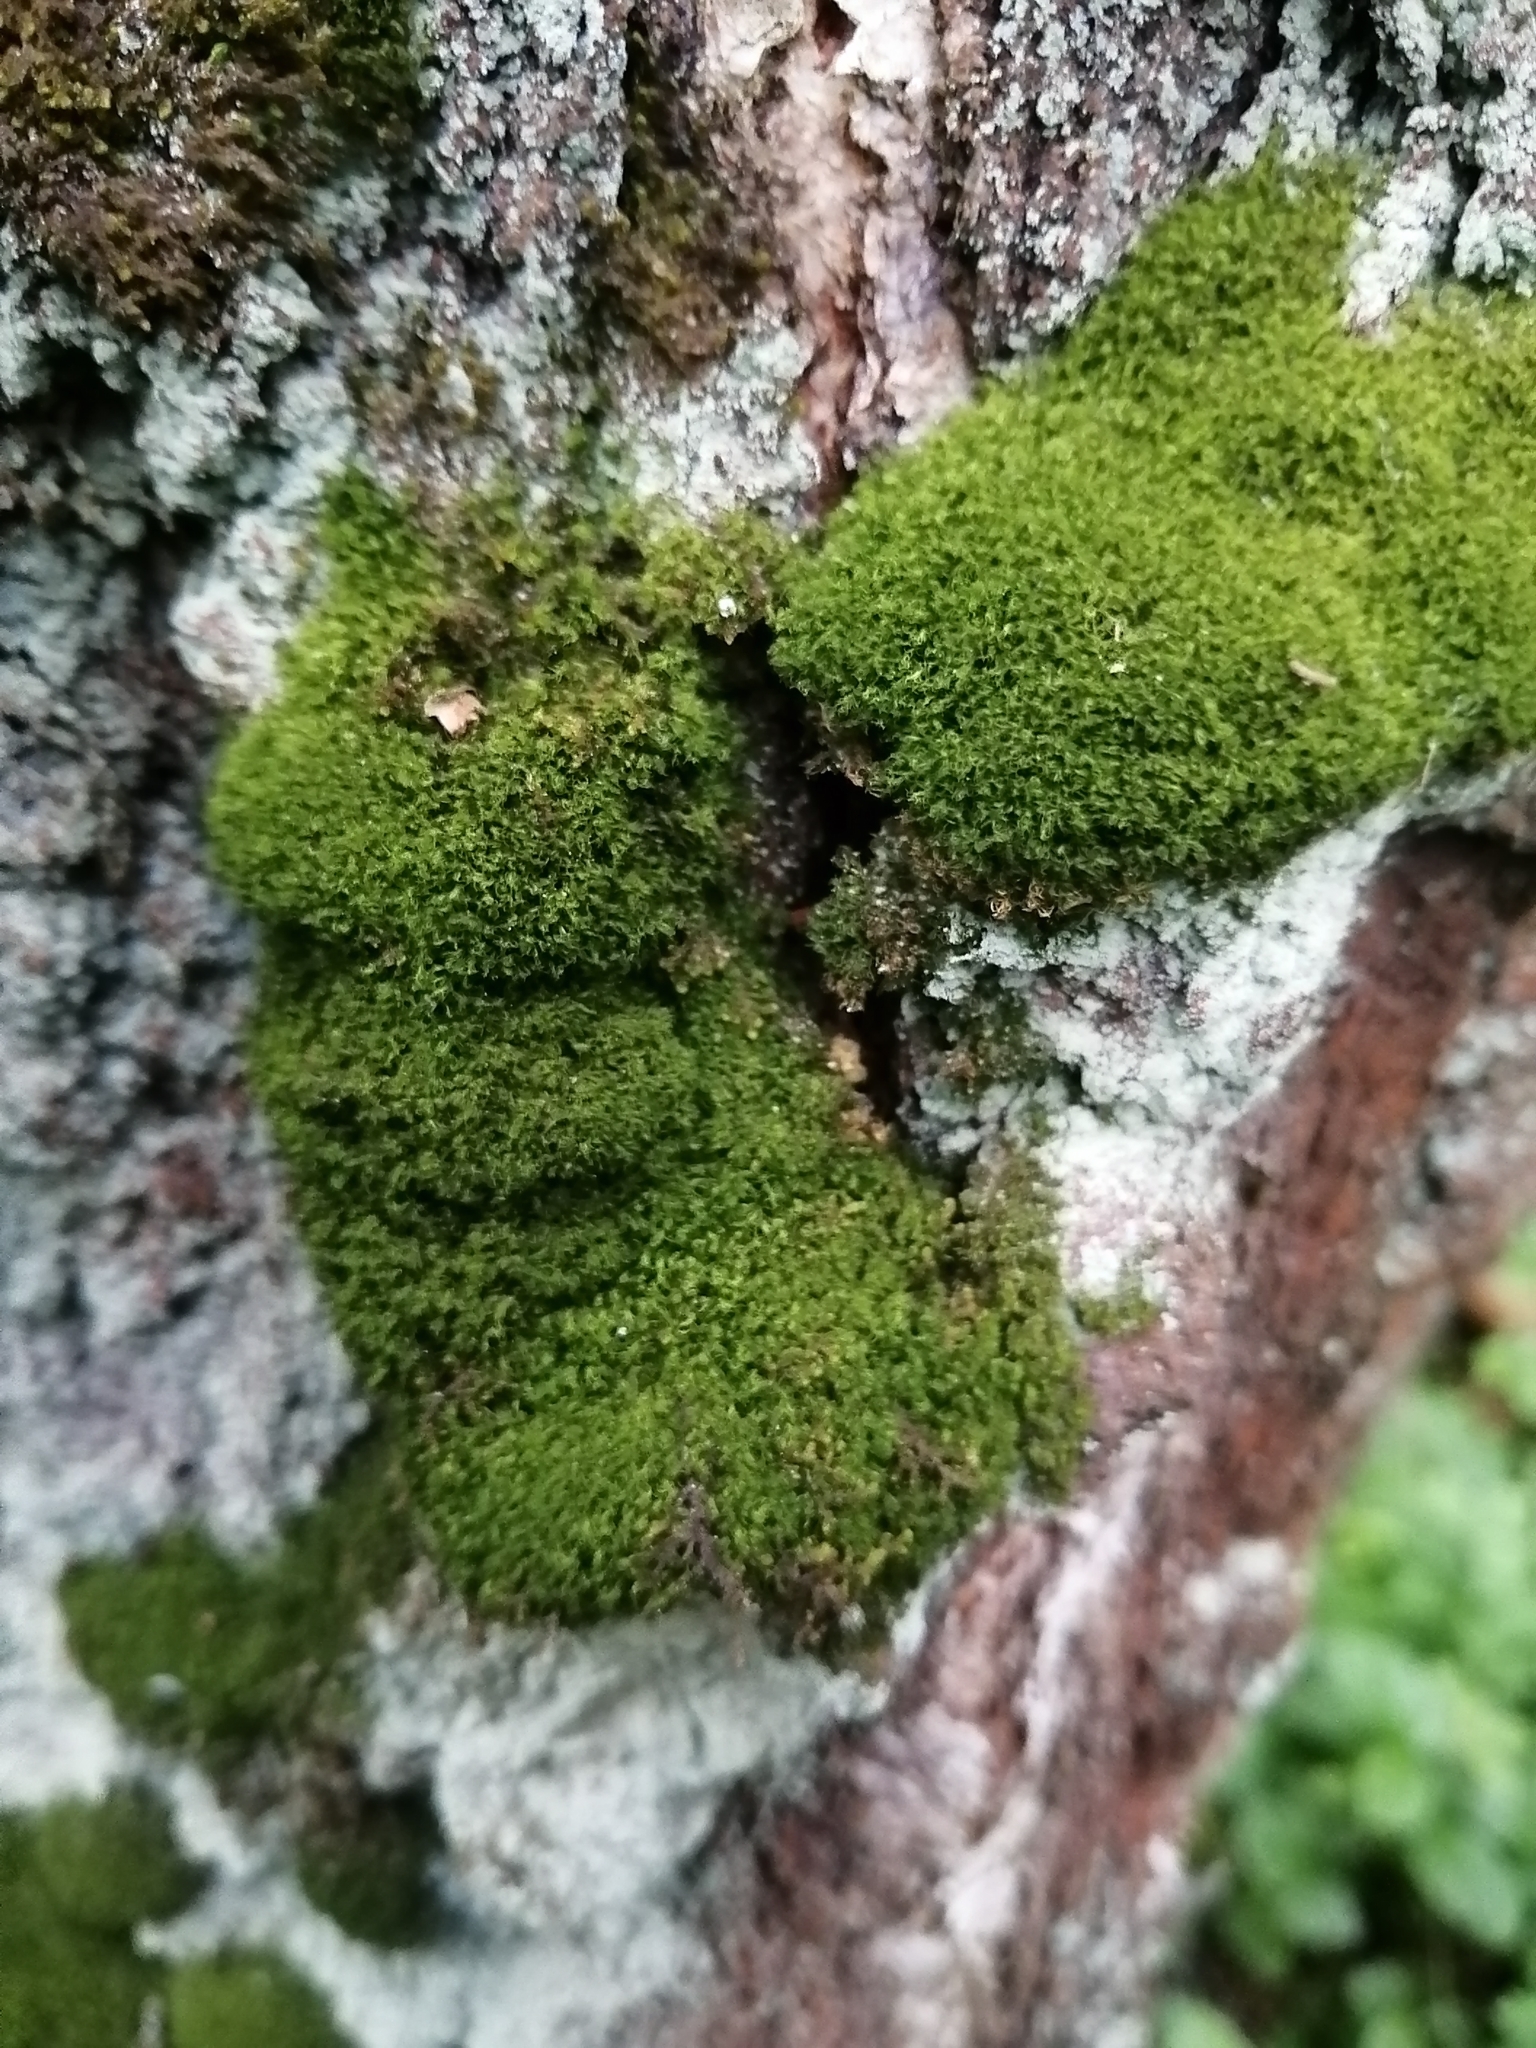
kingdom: Plantae
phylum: Bryophyta
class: Bryopsida
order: Dicranales
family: Dicranaceae
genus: Orthodicranum
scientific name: Orthodicranum montanum
